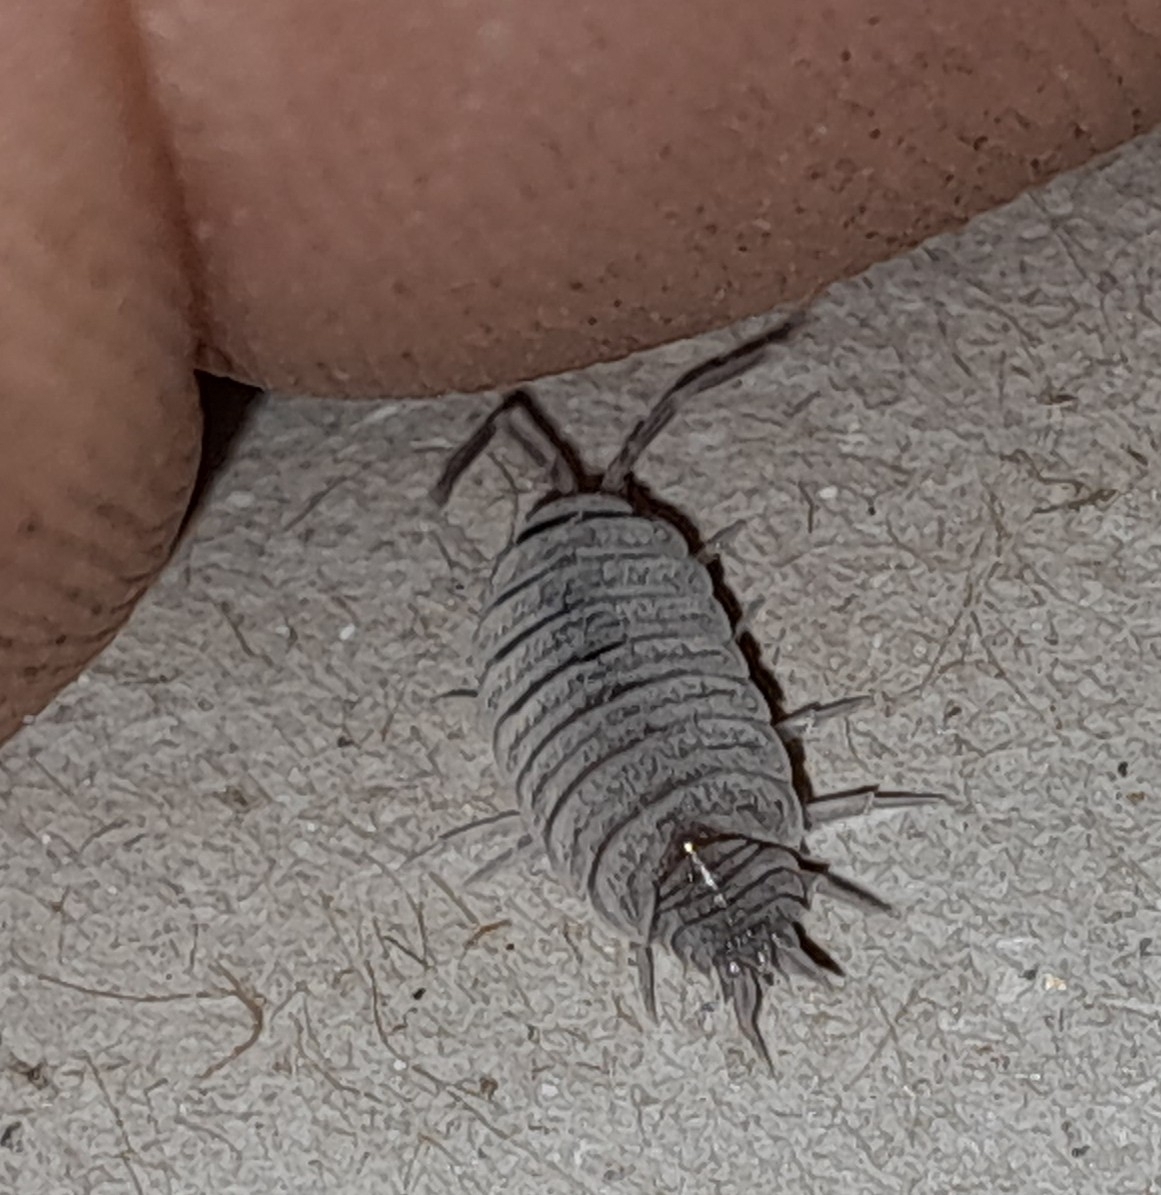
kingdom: Animalia
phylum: Arthropoda
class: Malacostraca
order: Isopoda
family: Porcellionidae
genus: Porcellionides
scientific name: Porcellionides pruinosus
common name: Plum woodlouse
